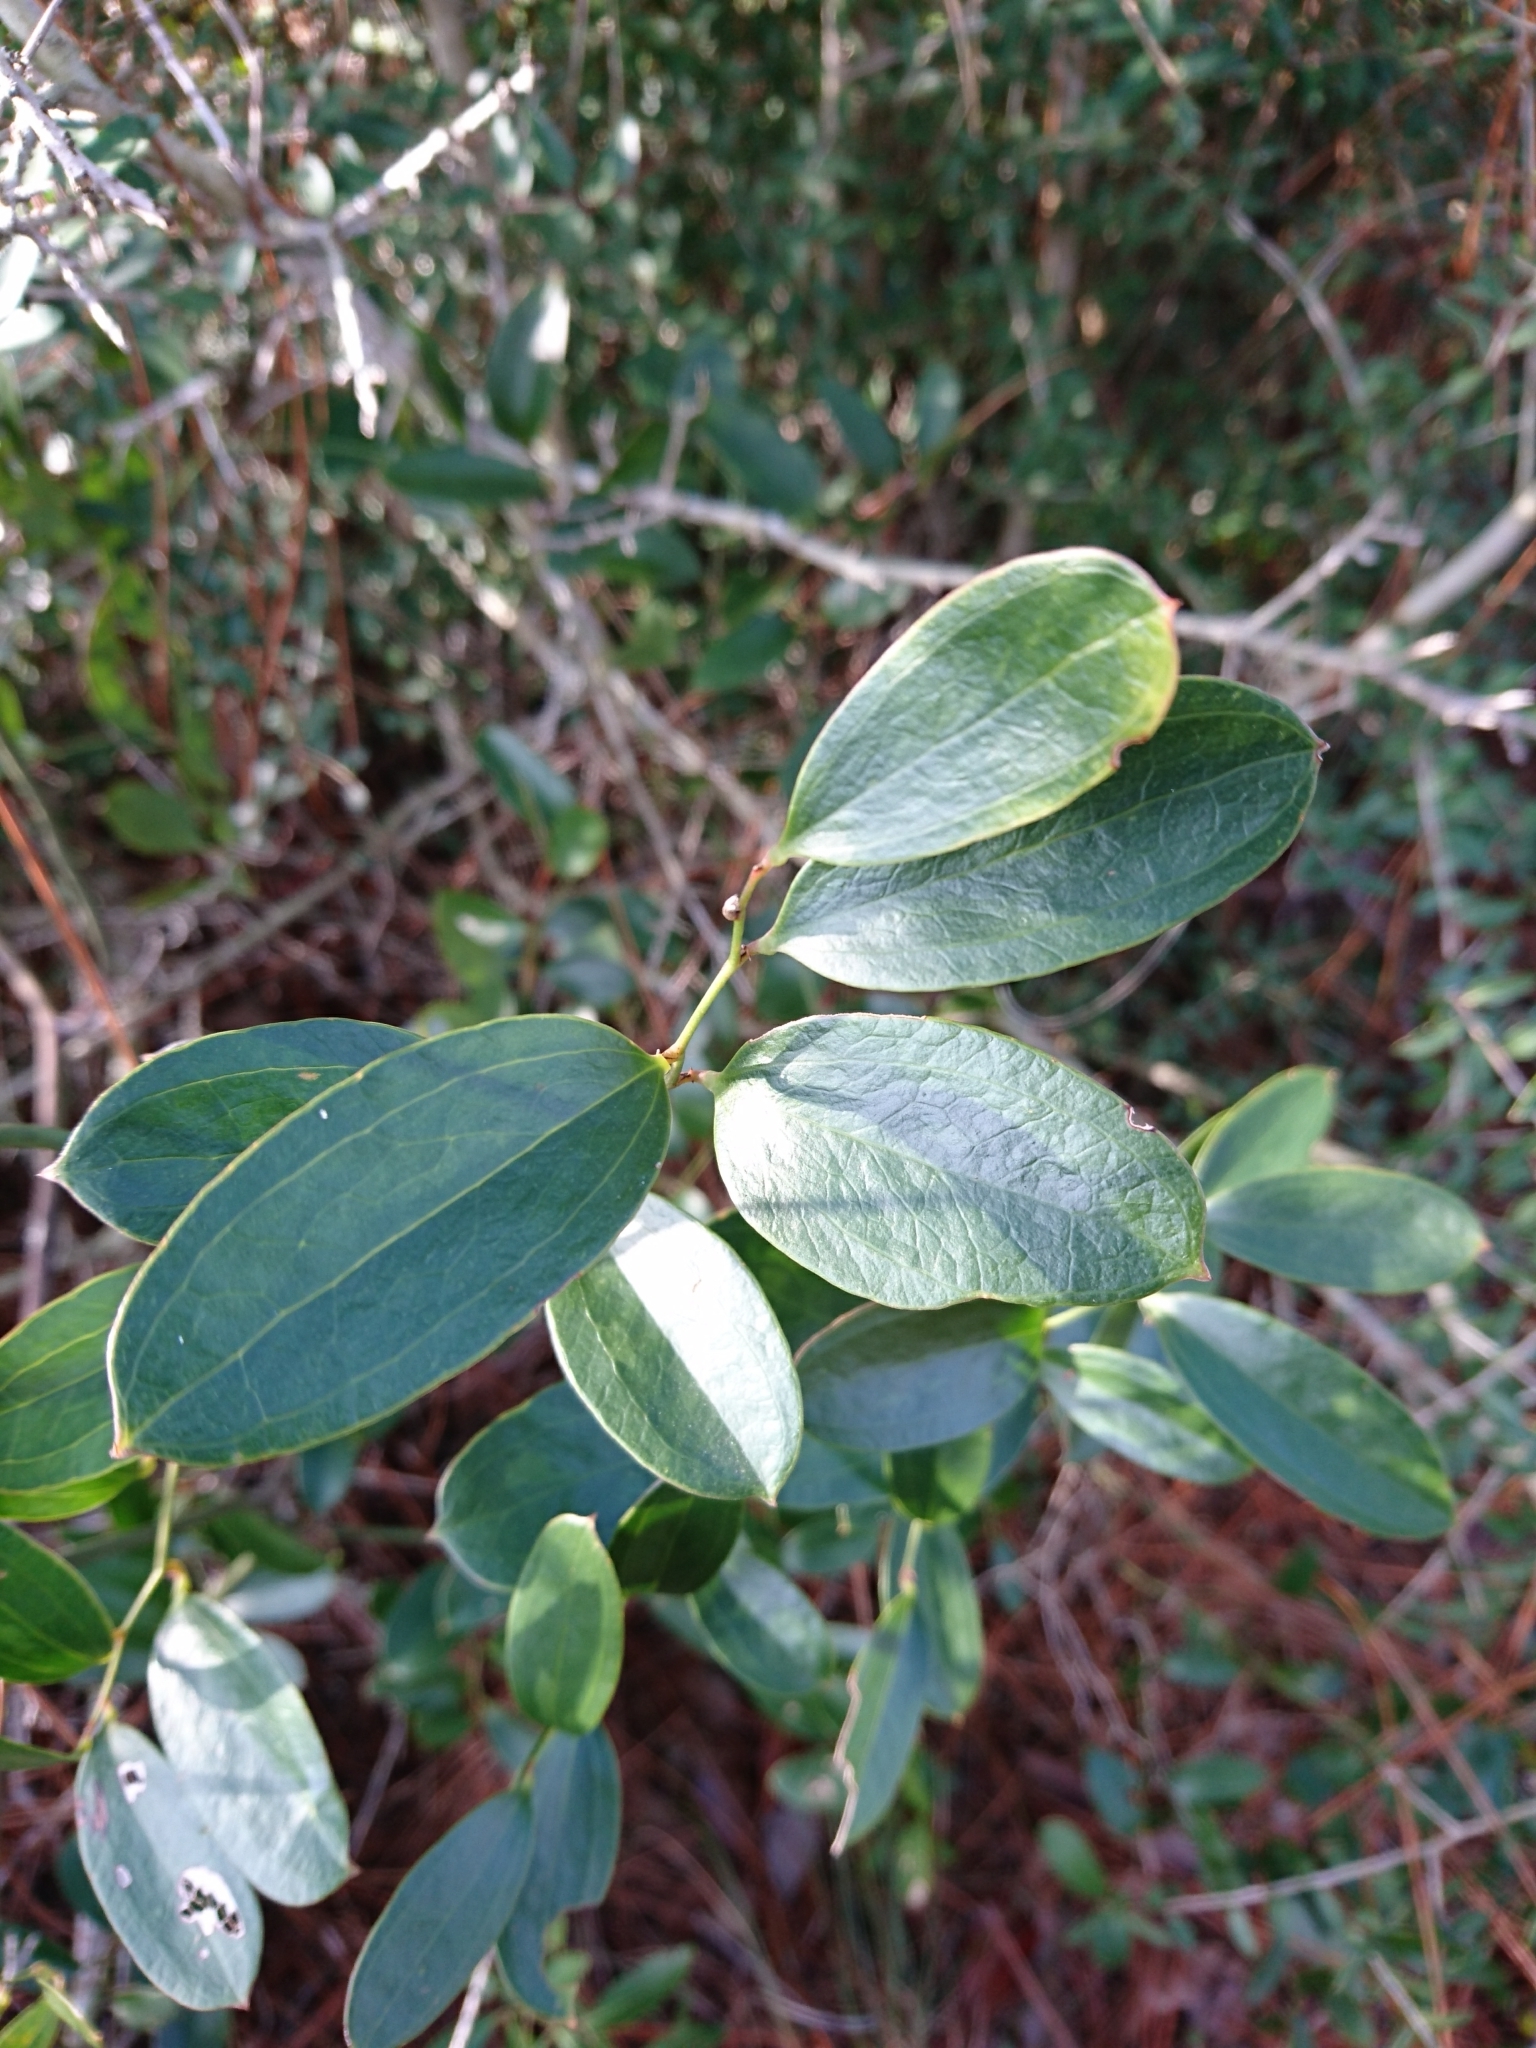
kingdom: Plantae
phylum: Tracheophyta
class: Liliopsida
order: Liliales
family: Smilacaceae
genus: Smilax
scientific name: Smilax auriculata
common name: Wild bamboo
